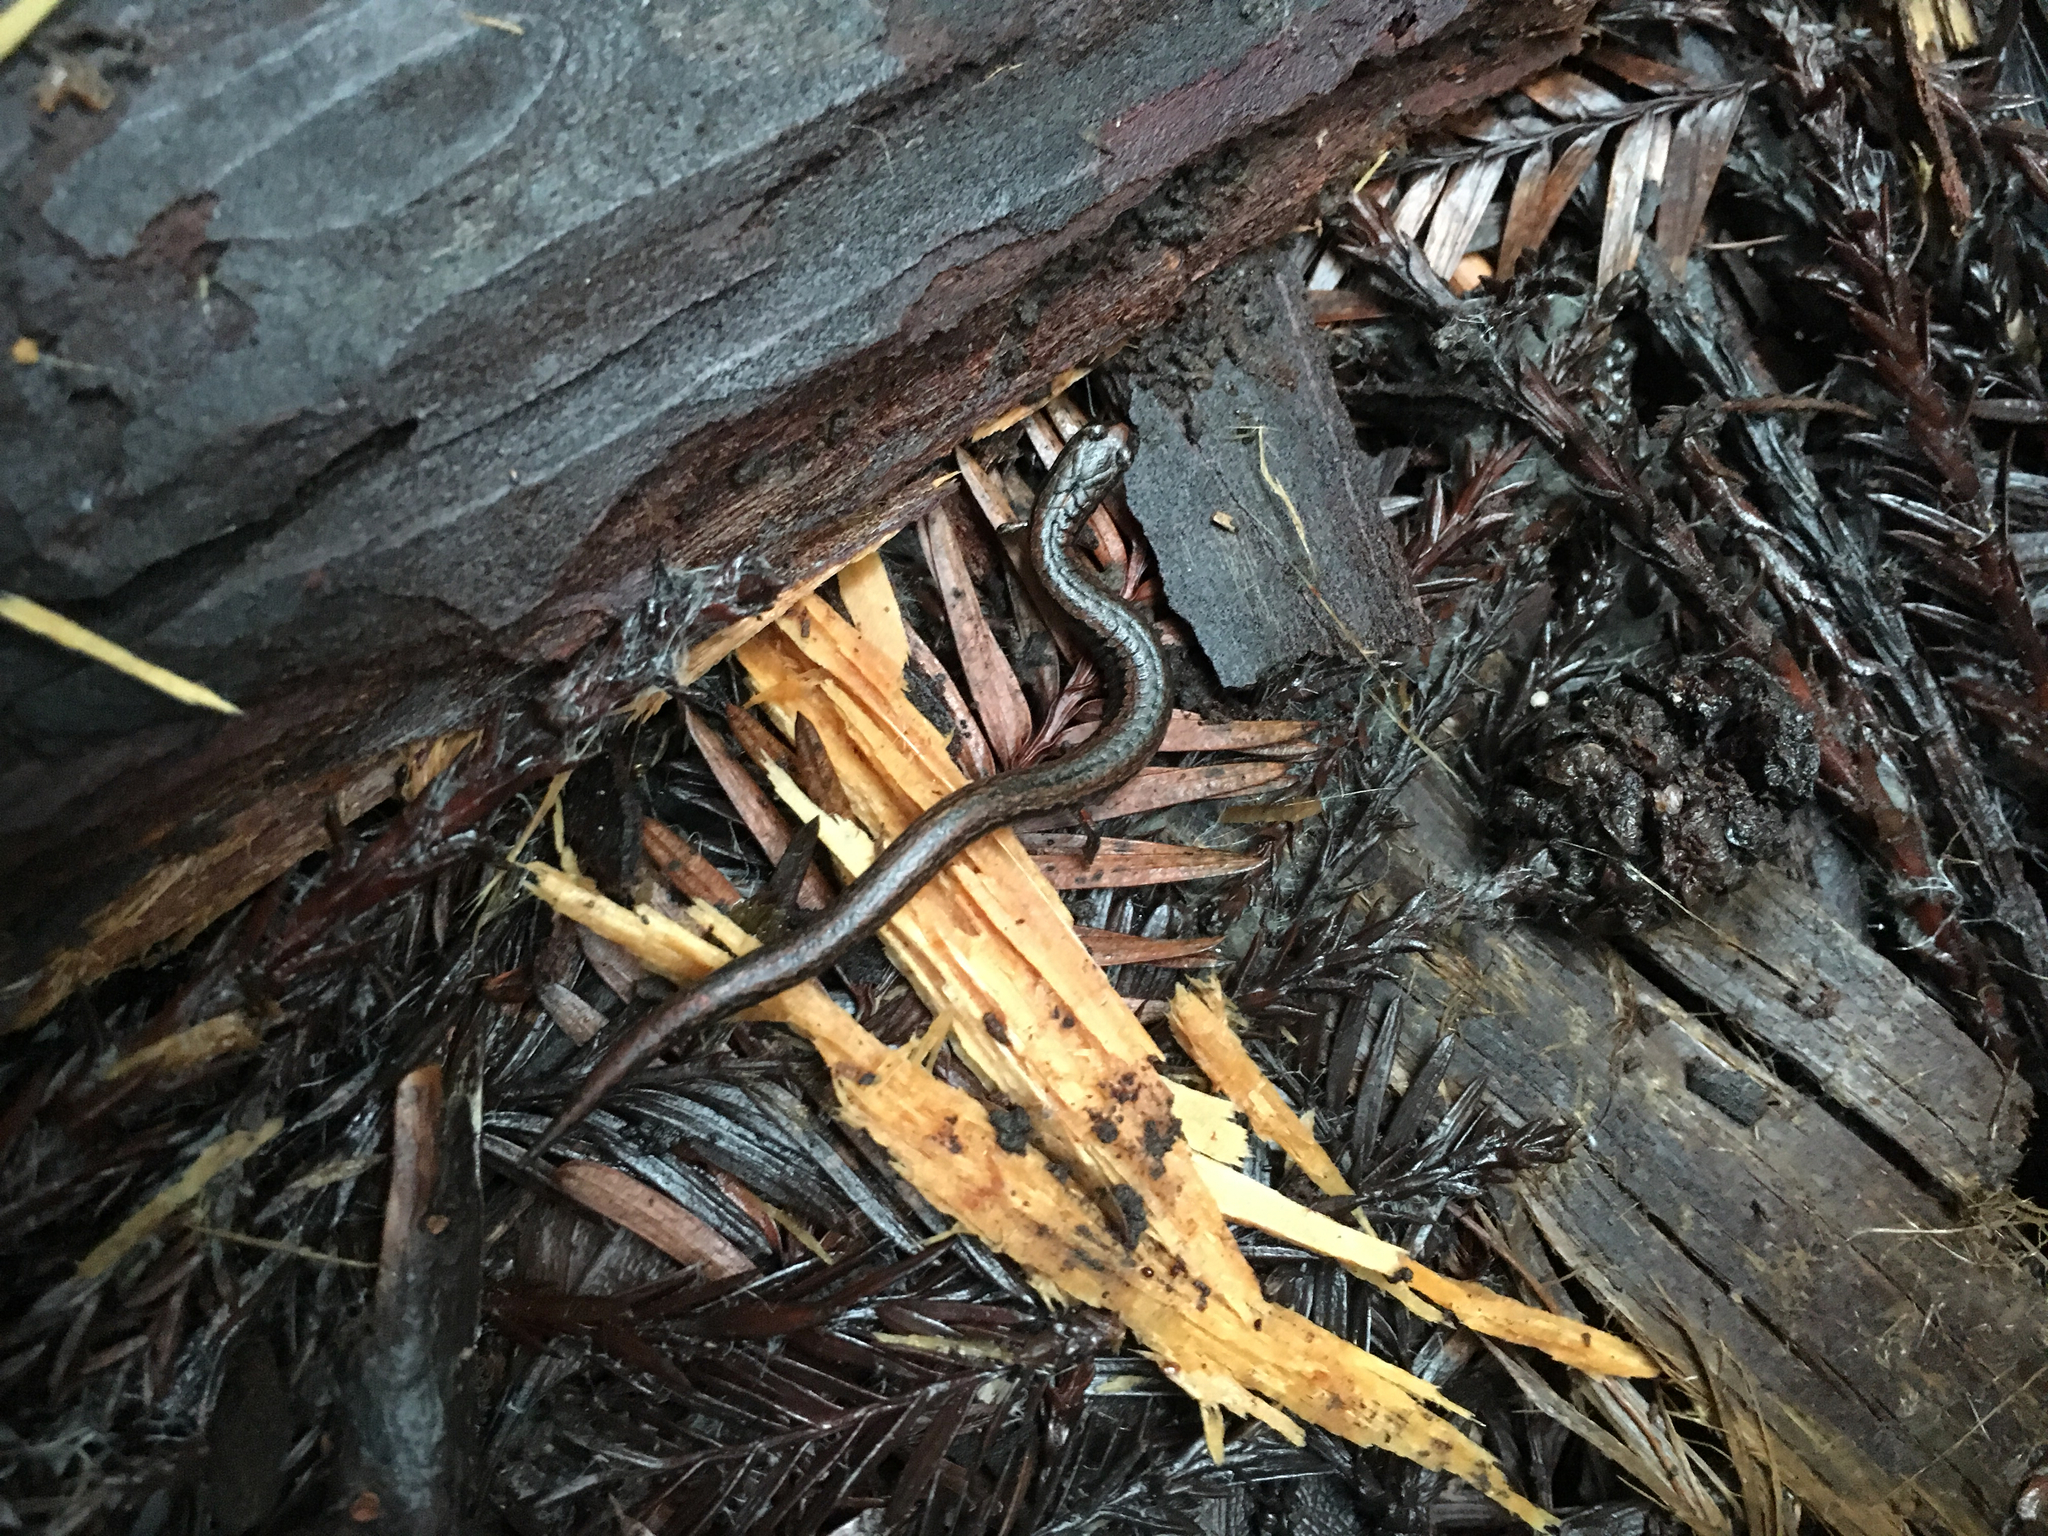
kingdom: Animalia
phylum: Chordata
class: Amphibia
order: Caudata
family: Plethodontidae
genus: Batrachoseps
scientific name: Batrachoseps attenuatus
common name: California slender salamander
